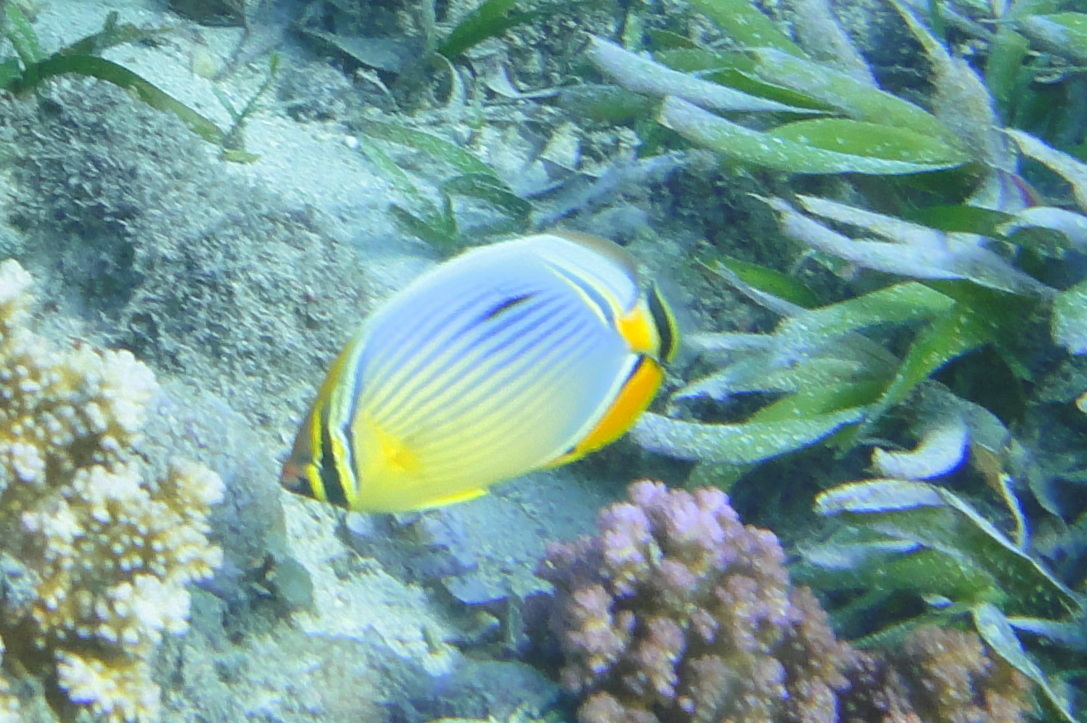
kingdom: Animalia
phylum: Chordata
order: Perciformes
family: Chaetodontidae
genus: Chaetodon
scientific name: Chaetodon trifasciatus
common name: Redfin butterflyfish
